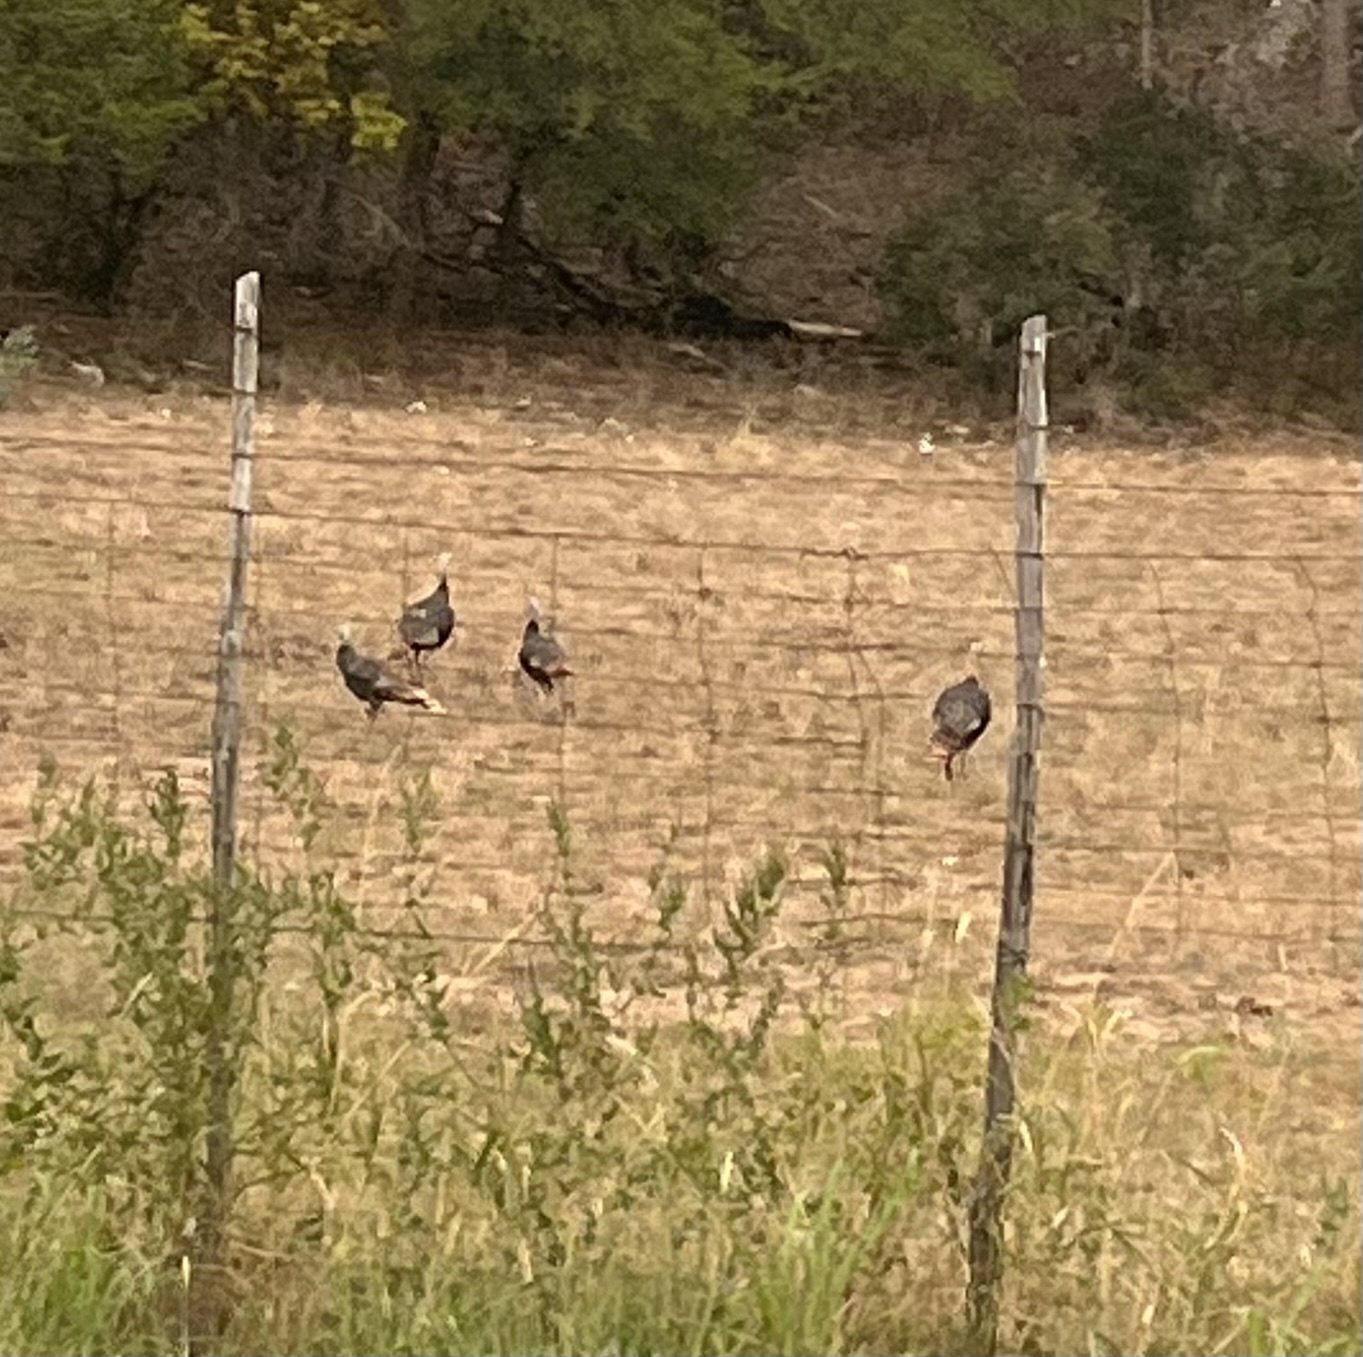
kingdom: Animalia
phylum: Chordata
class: Aves
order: Galliformes
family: Phasianidae
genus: Meleagris
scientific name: Meleagris gallopavo
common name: Wild turkey
